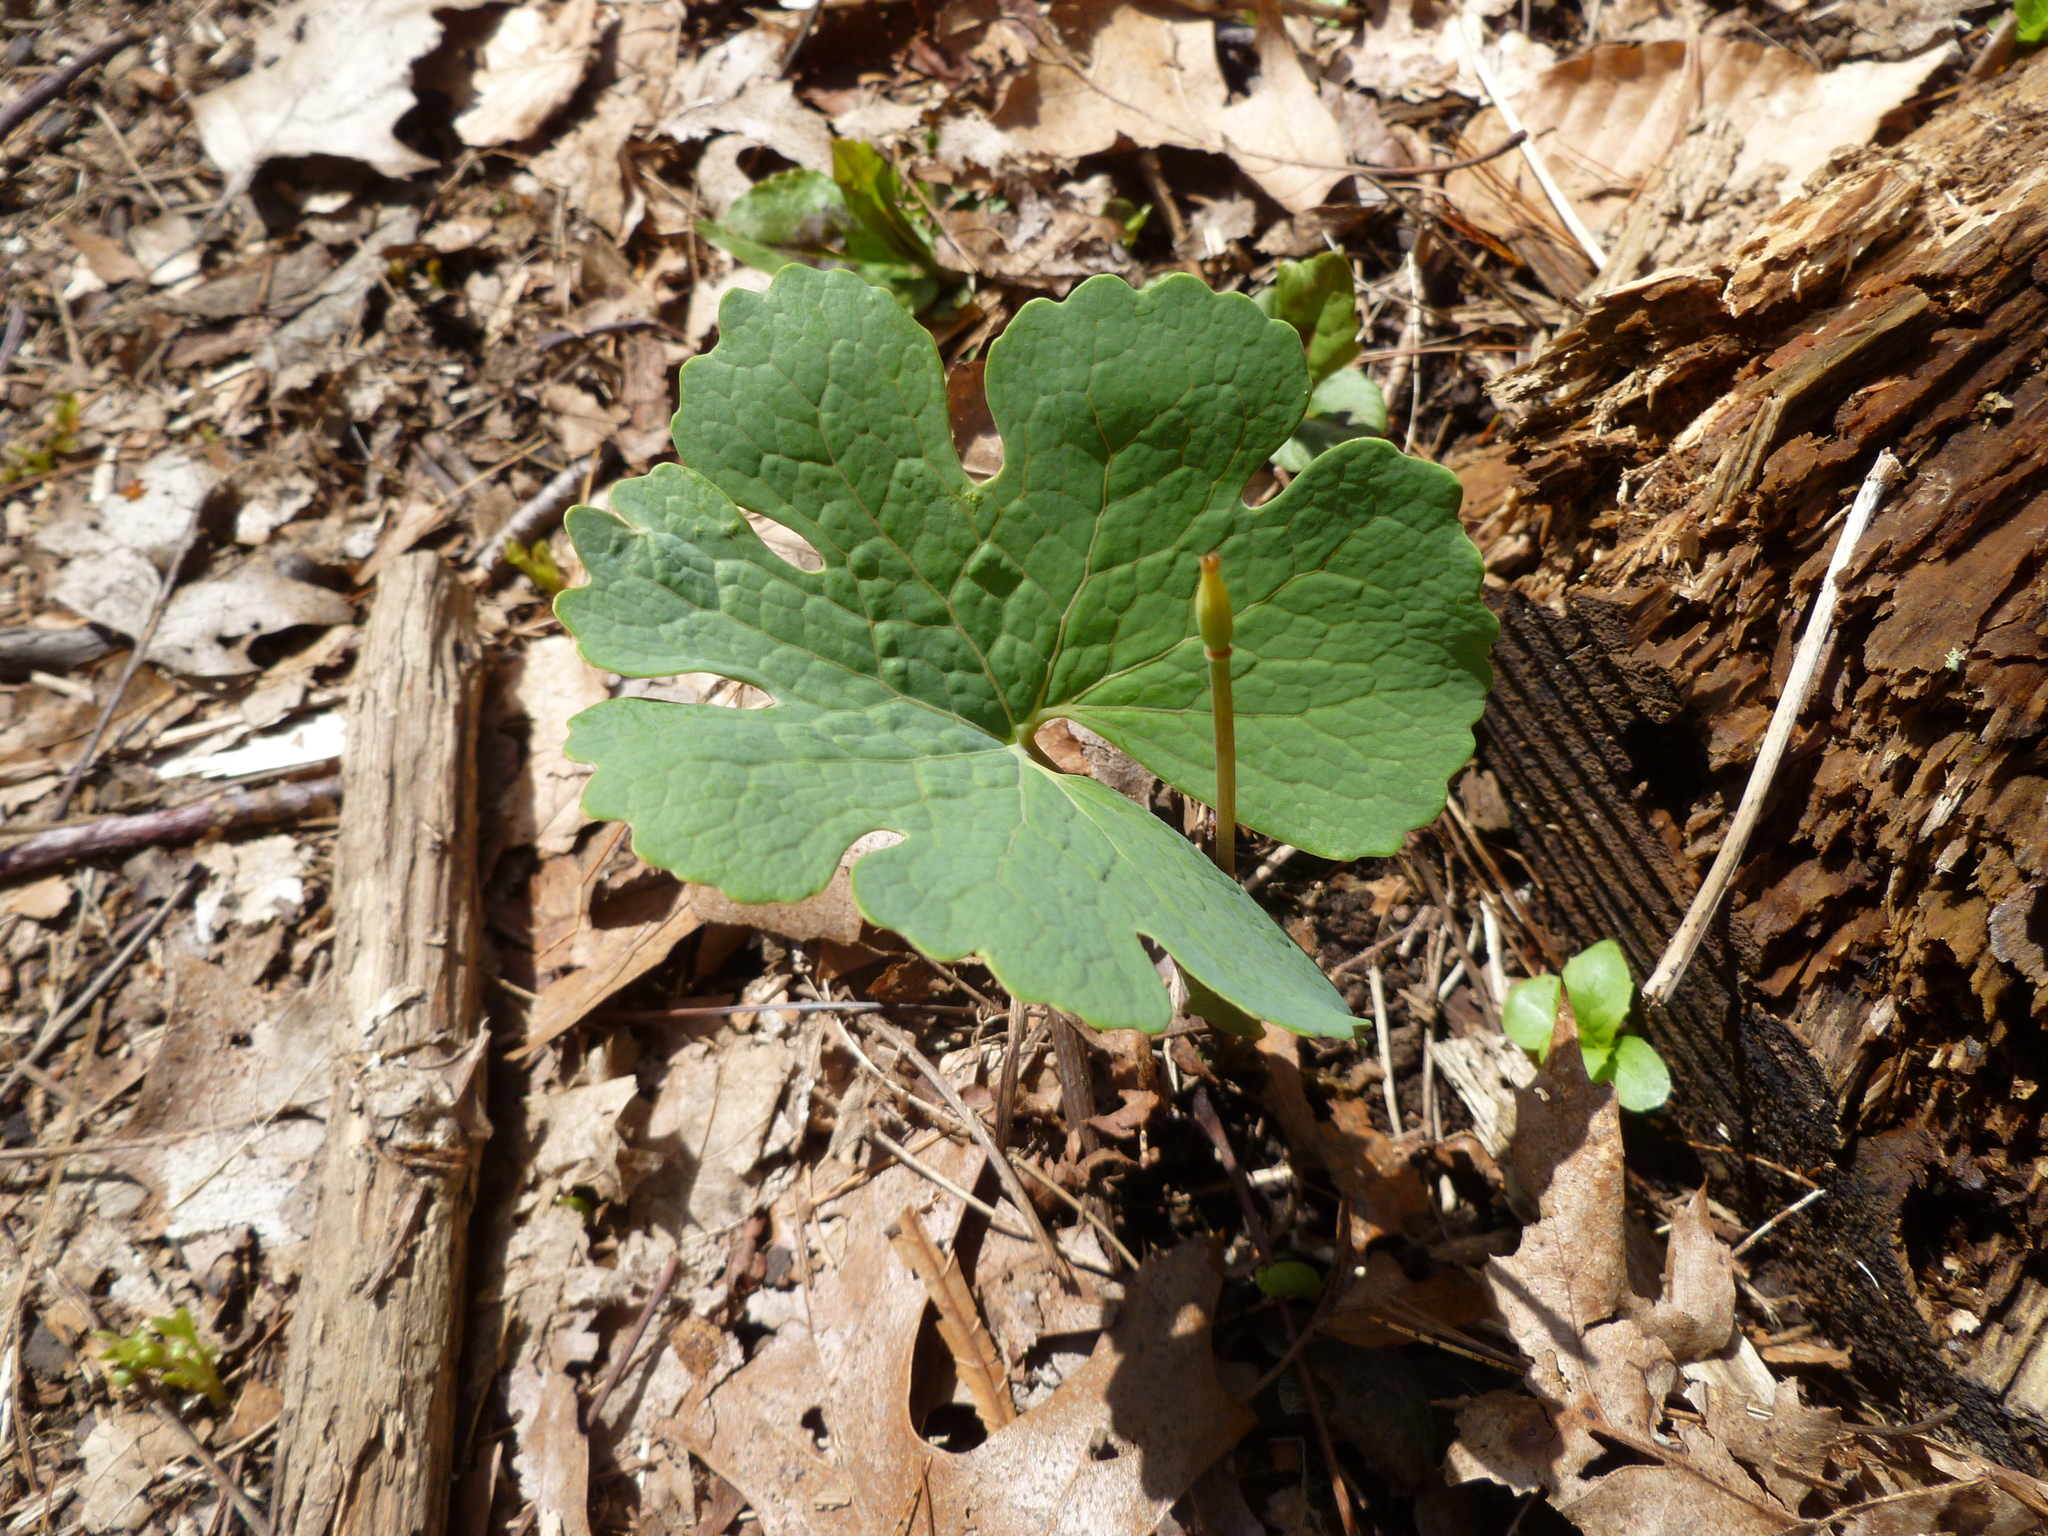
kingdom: Plantae
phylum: Tracheophyta
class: Magnoliopsida
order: Ranunculales
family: Papaveraceae
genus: Sanguinaria
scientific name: Sanguinaria canadensis
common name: Bloodroot
